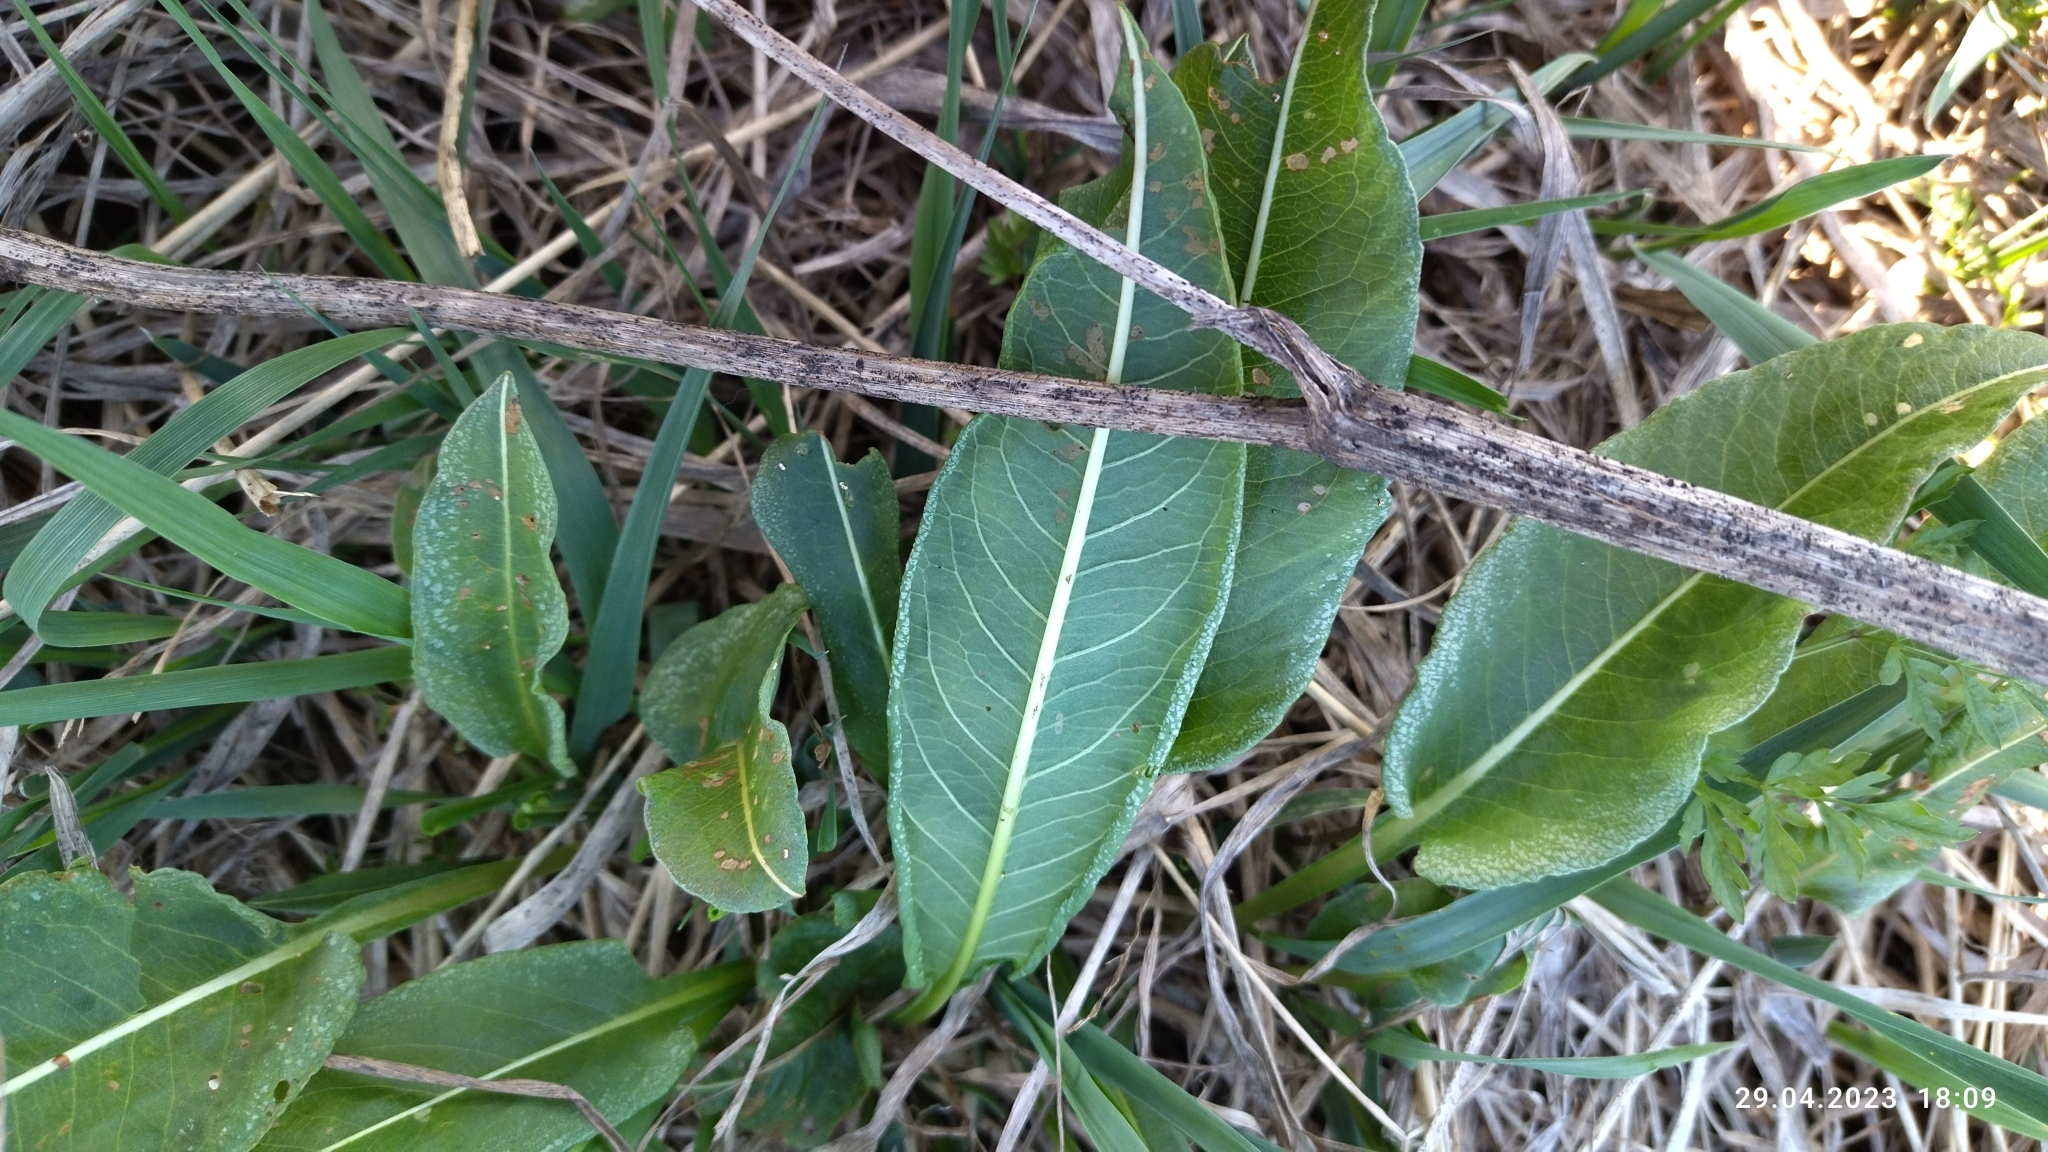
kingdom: Plantae
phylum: Tracheophyta
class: Magnoliopsida
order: Caryophyllales
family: Polygonaceae
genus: Bistorta
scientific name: Bistorta officinalis
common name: Common bistort
